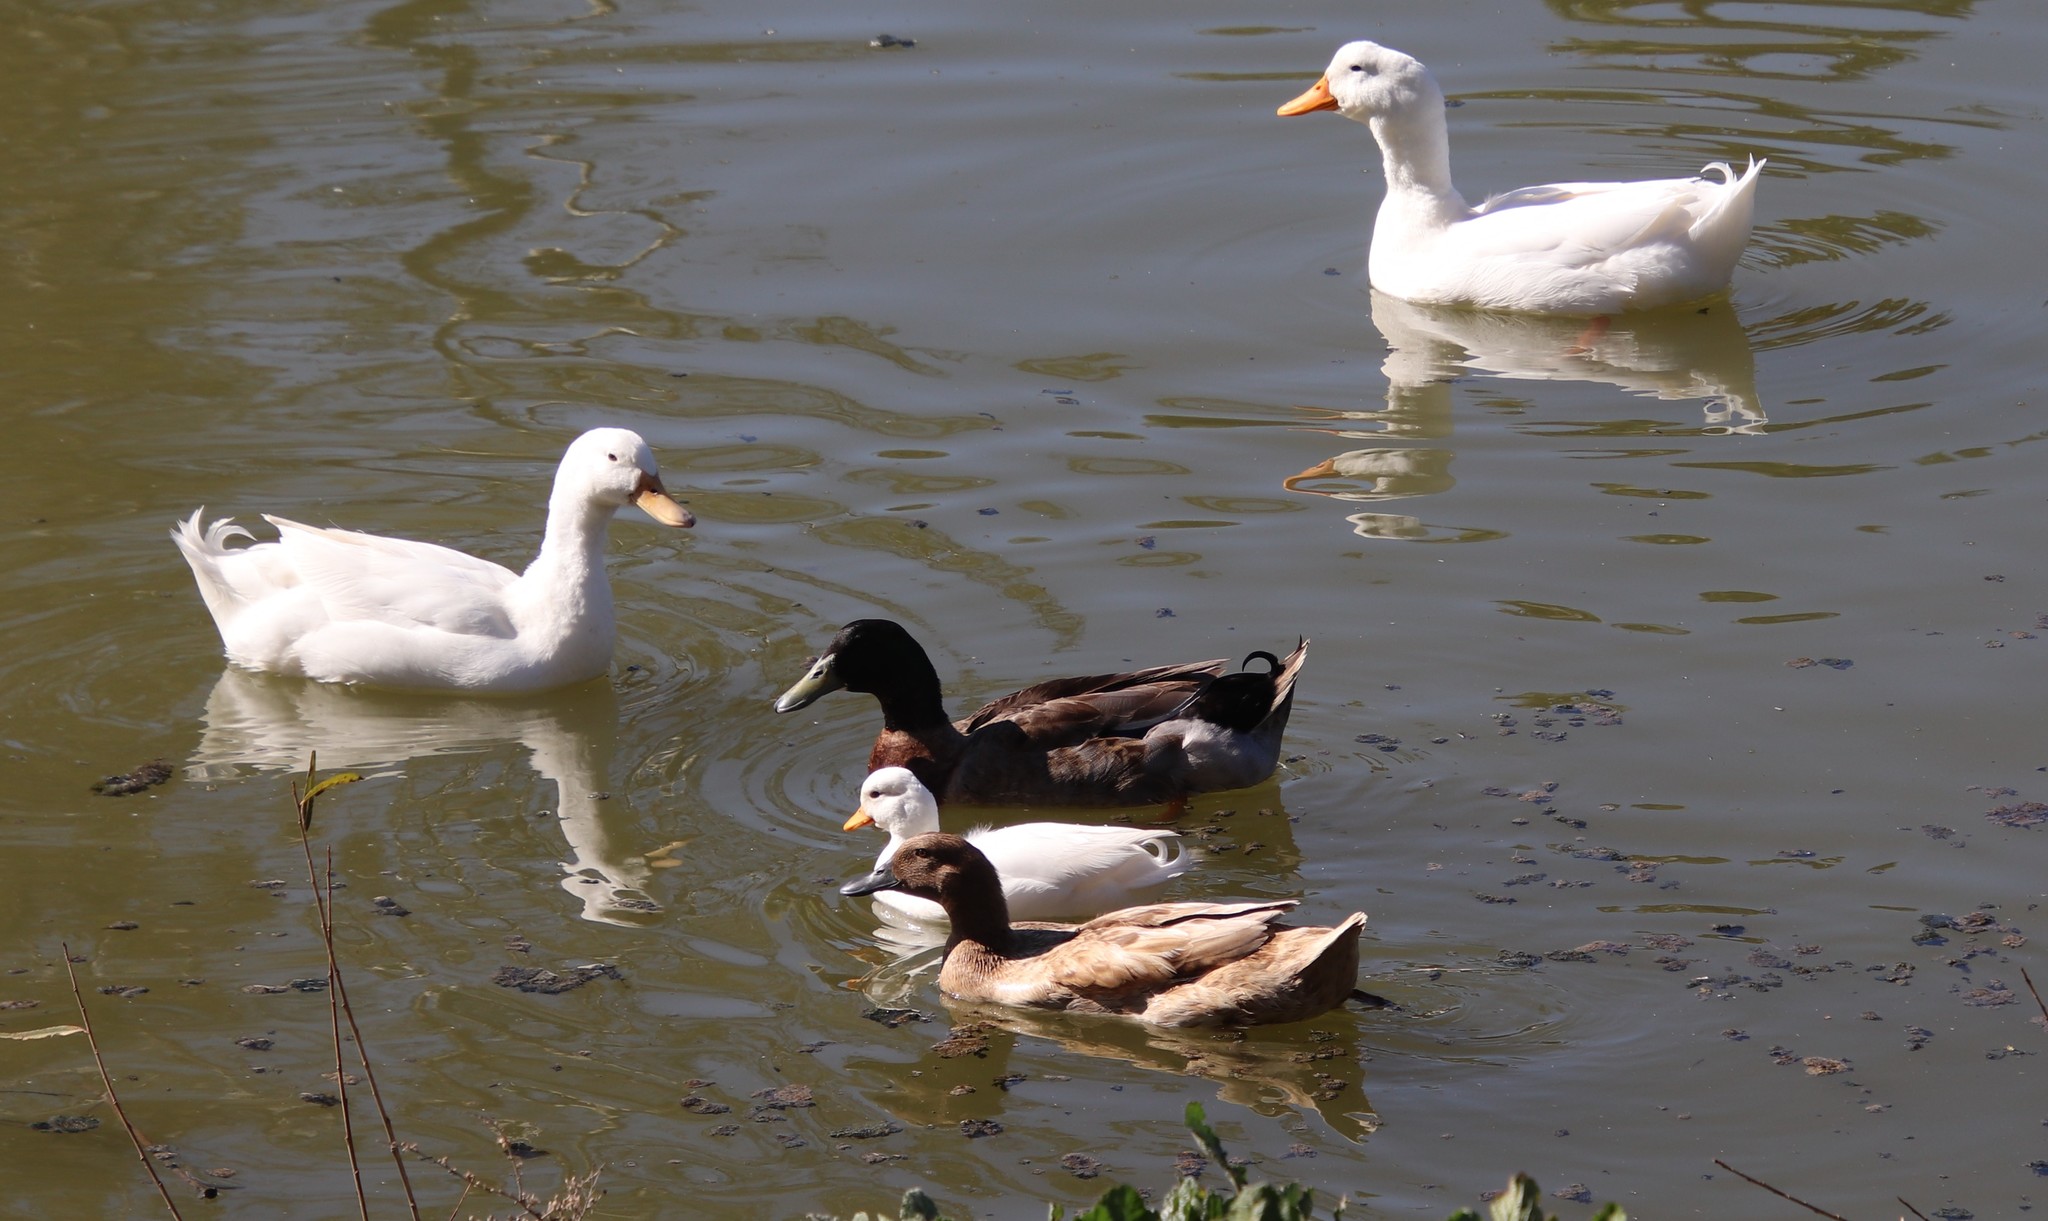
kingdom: Animalia
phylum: Chordata
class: Aves
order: Anseriformes
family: Anatidae
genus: Anas
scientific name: Anas platyrhynchos
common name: Mallard
